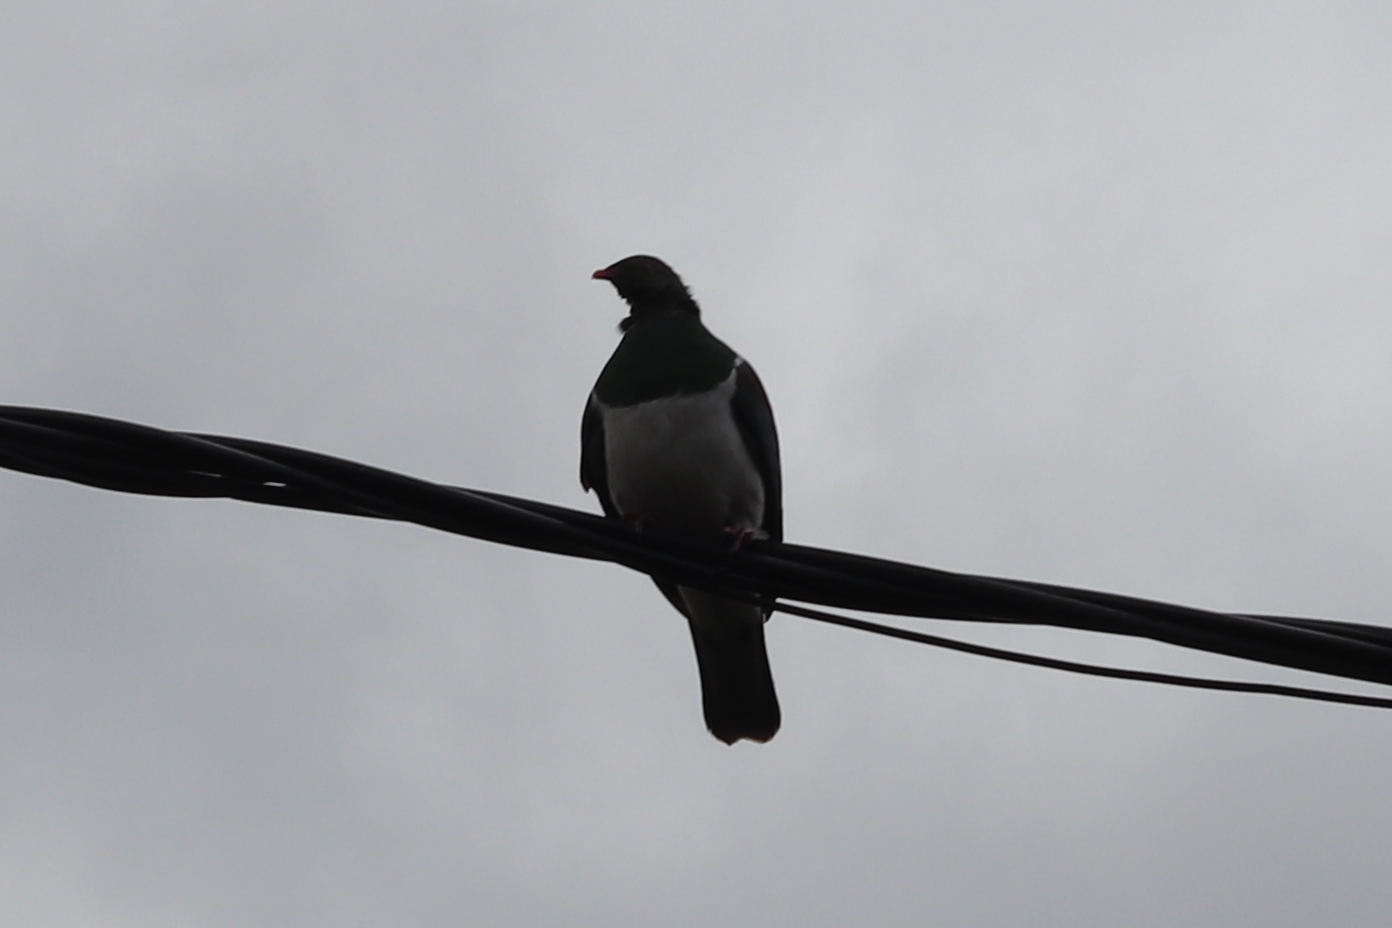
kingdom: Animalia
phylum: Chordata
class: Aves
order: Columbiformes
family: Columbidae
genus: Hemiphaga
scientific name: Hemiphaga novaeseelandiae
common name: New zealand pigeon
